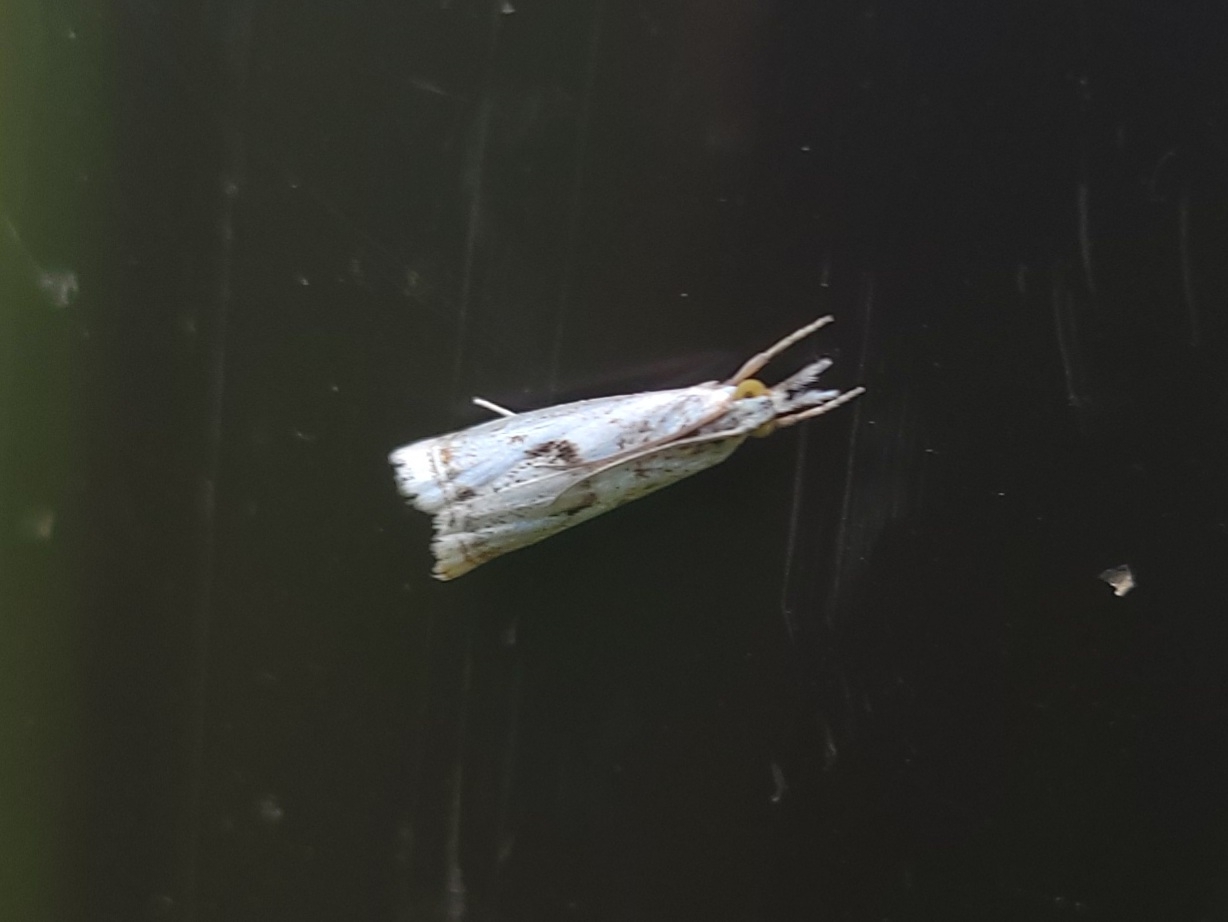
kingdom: Animalia
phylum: Arthropoda
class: Insecta
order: Lepidoptera
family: Crambidae
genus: Microcrambus
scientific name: Microcrambus elegans
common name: Elegant grass-veneer
